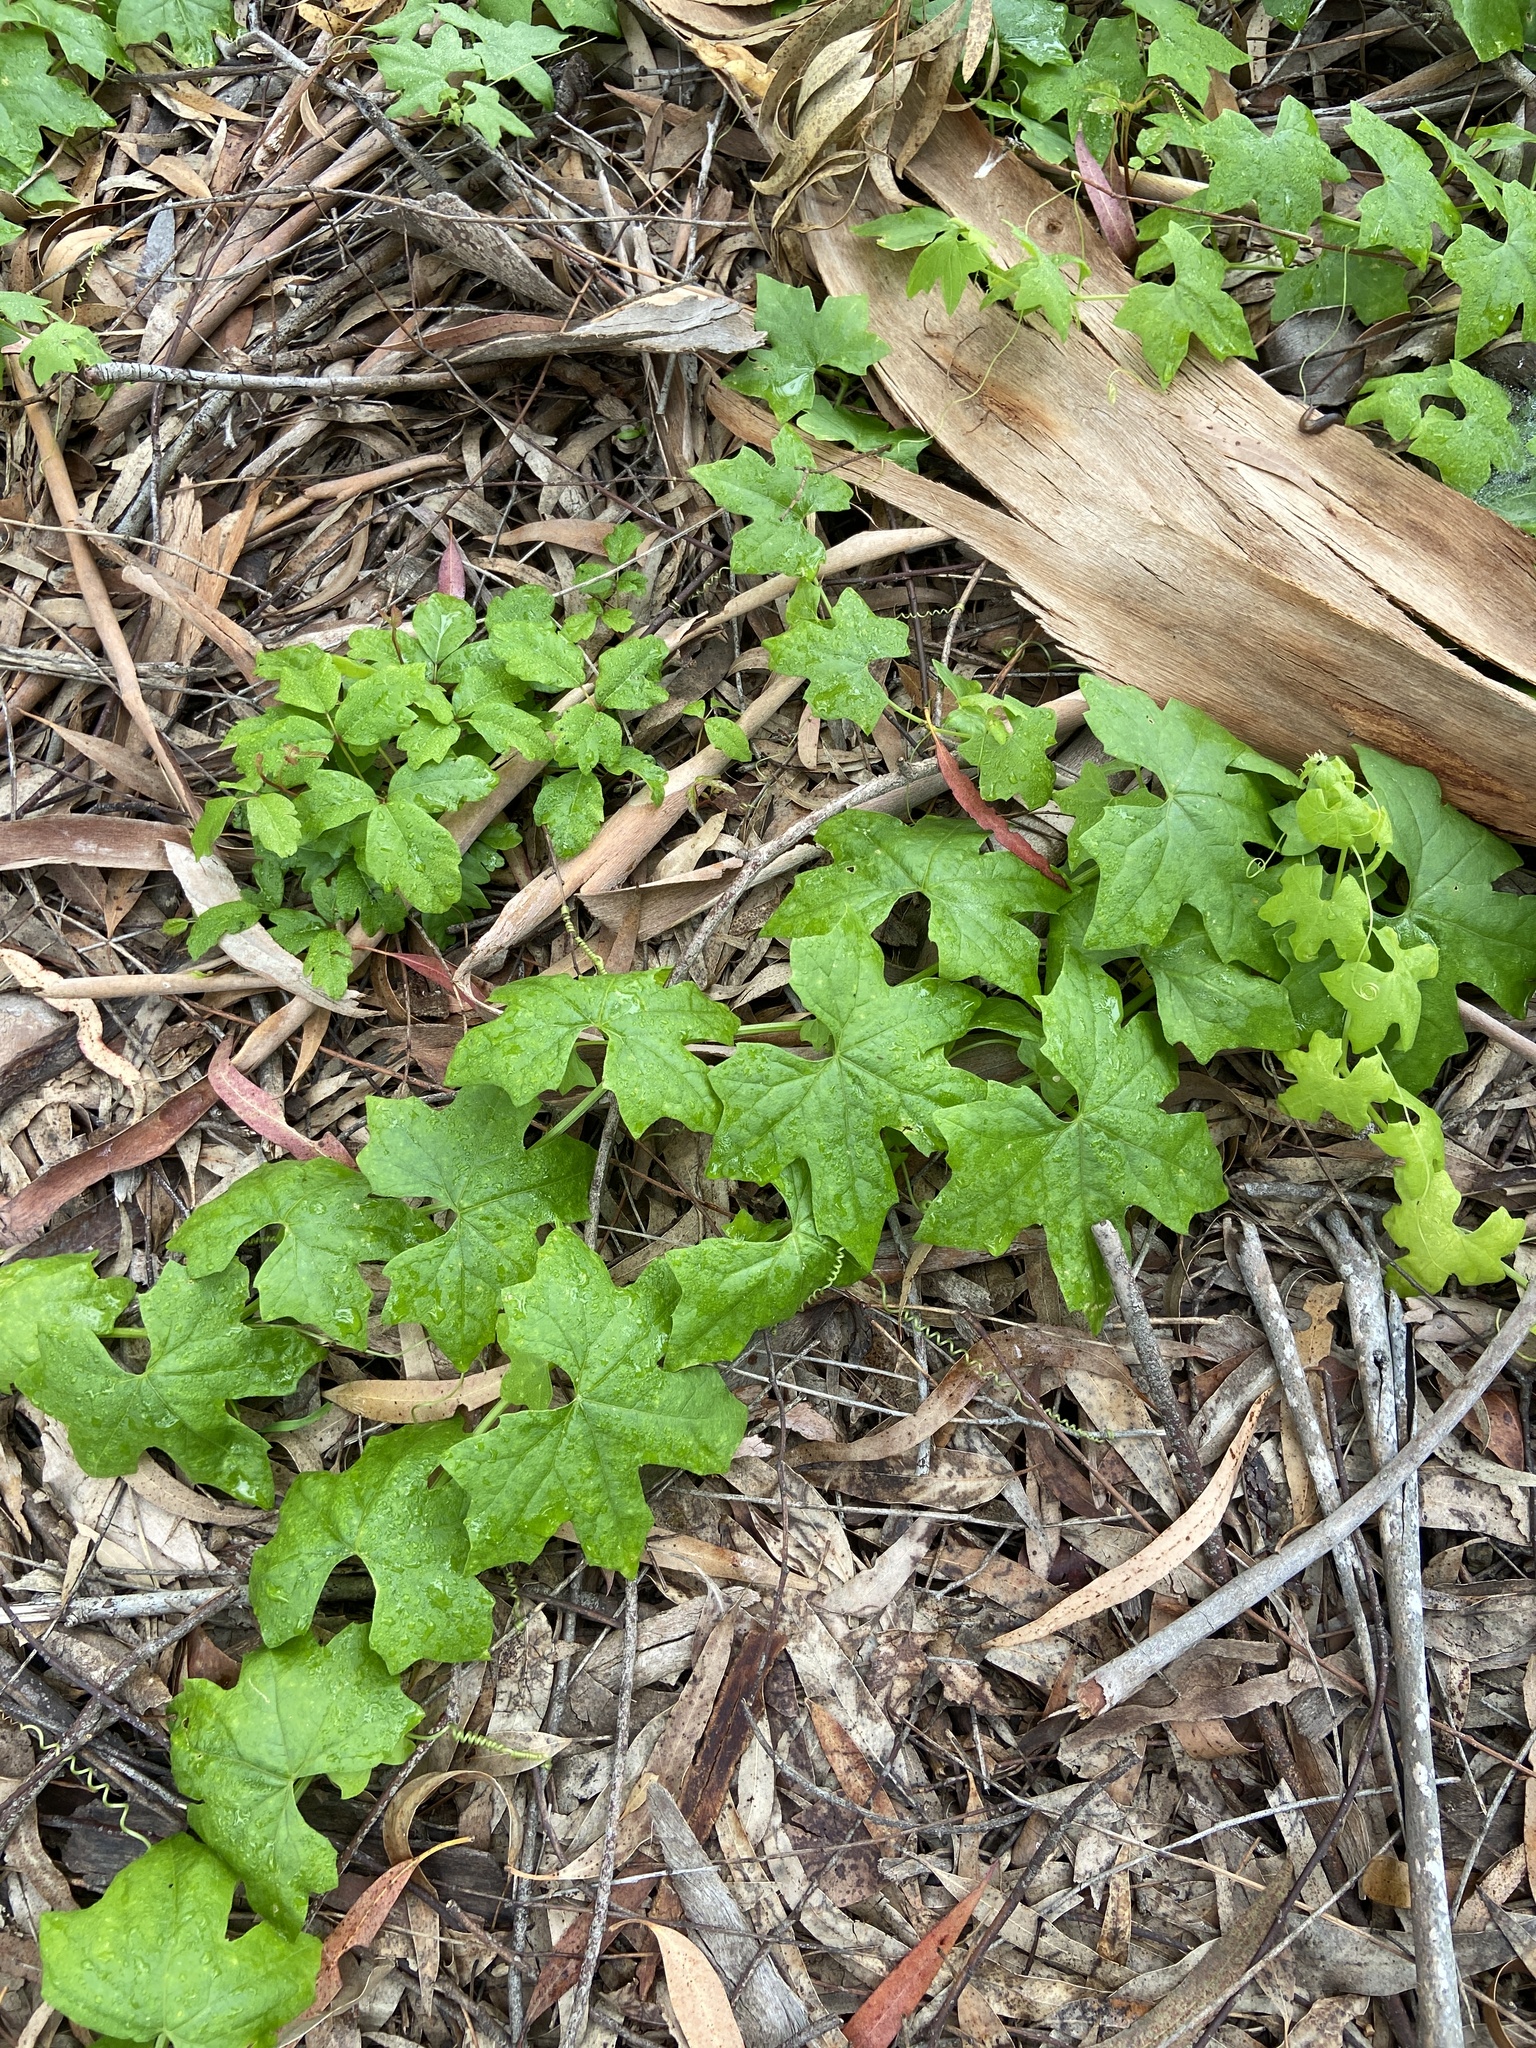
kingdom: Plantae
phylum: Tracheophyta
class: Magnoliopsida
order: Cucurbitales
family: Cucurbitaceae
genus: Marah
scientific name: Marah macrocarpa
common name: Cucamonga manroot
